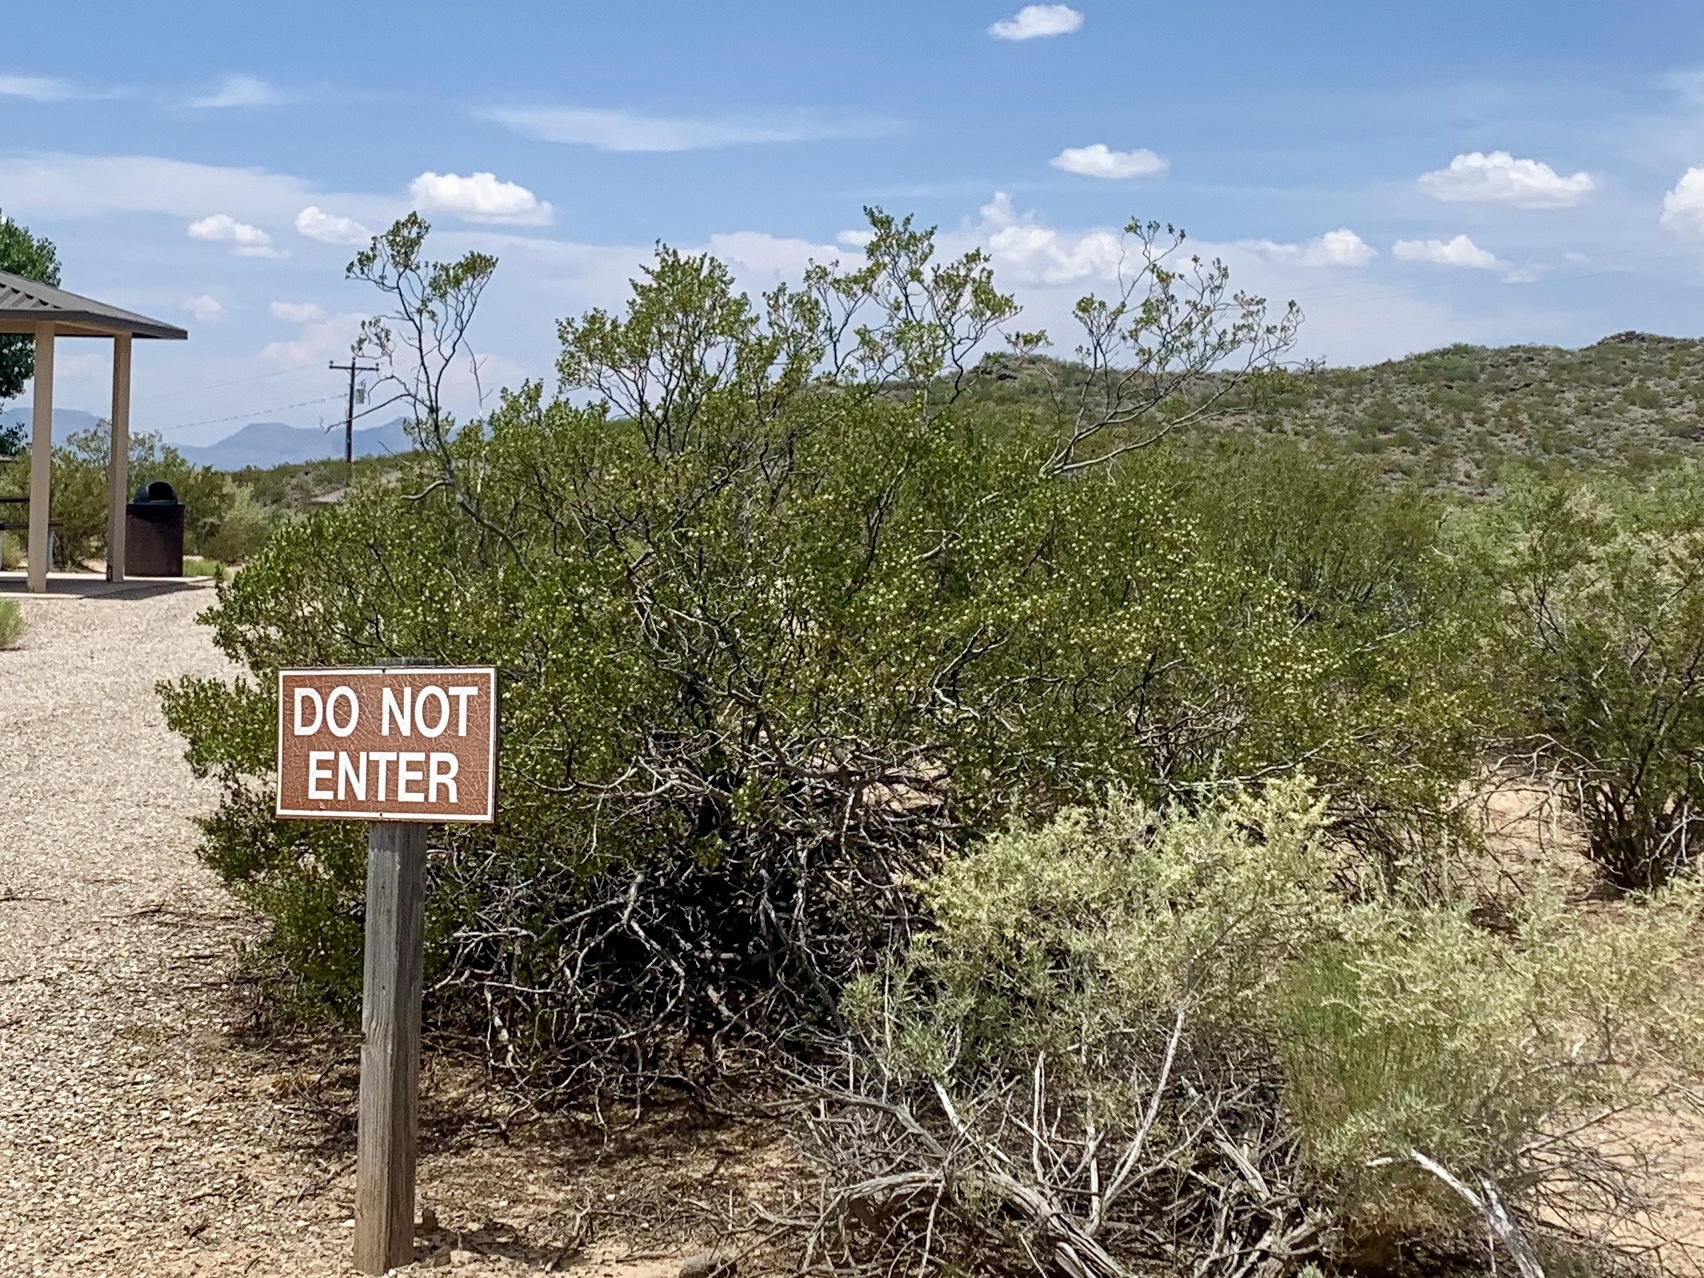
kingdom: Plantae
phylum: Tracheophyta
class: Magnoliopsida
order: Zygophyllales
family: Zygophyllaceae
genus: Larrea
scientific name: Larrea tridentata
